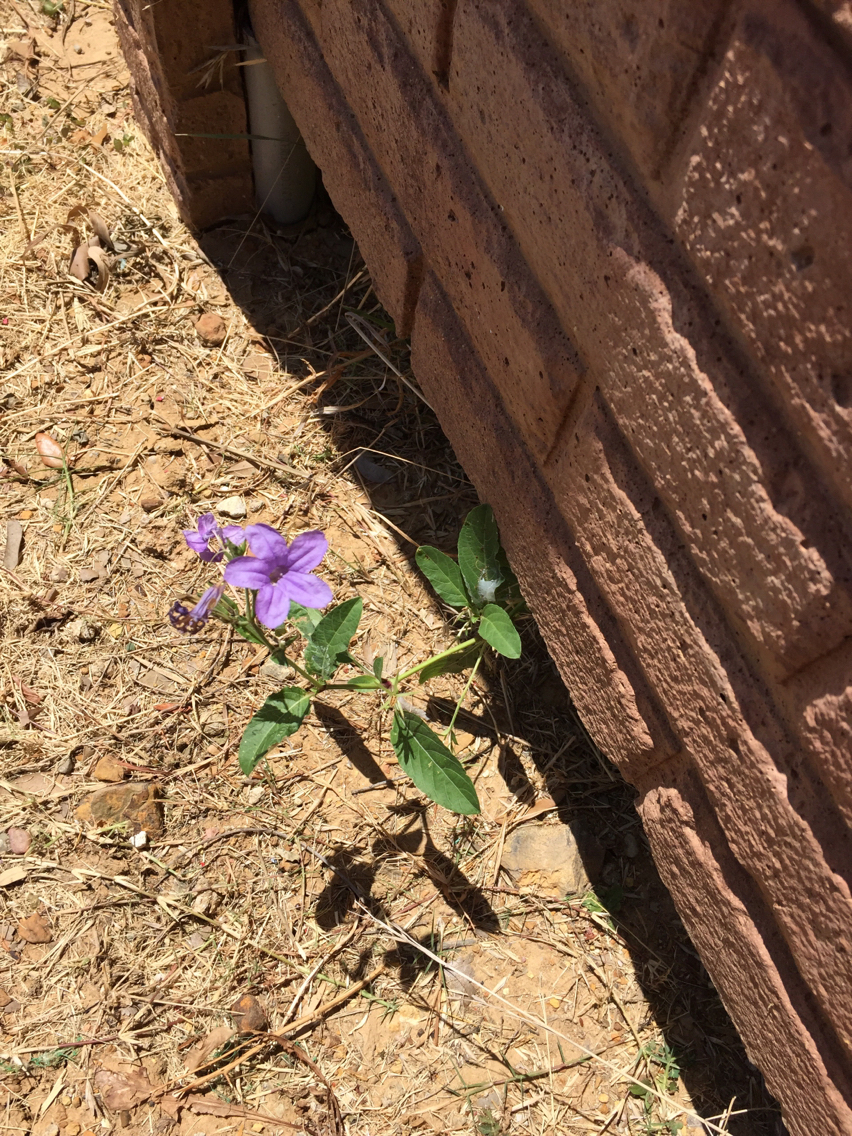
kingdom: Plantae
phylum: Tracheophyta
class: Magnoliopsida
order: Lamiales
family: Acanthaceae
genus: Ruellia
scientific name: Ruellia ciliatiflora
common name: Hairyflower wild petunia
